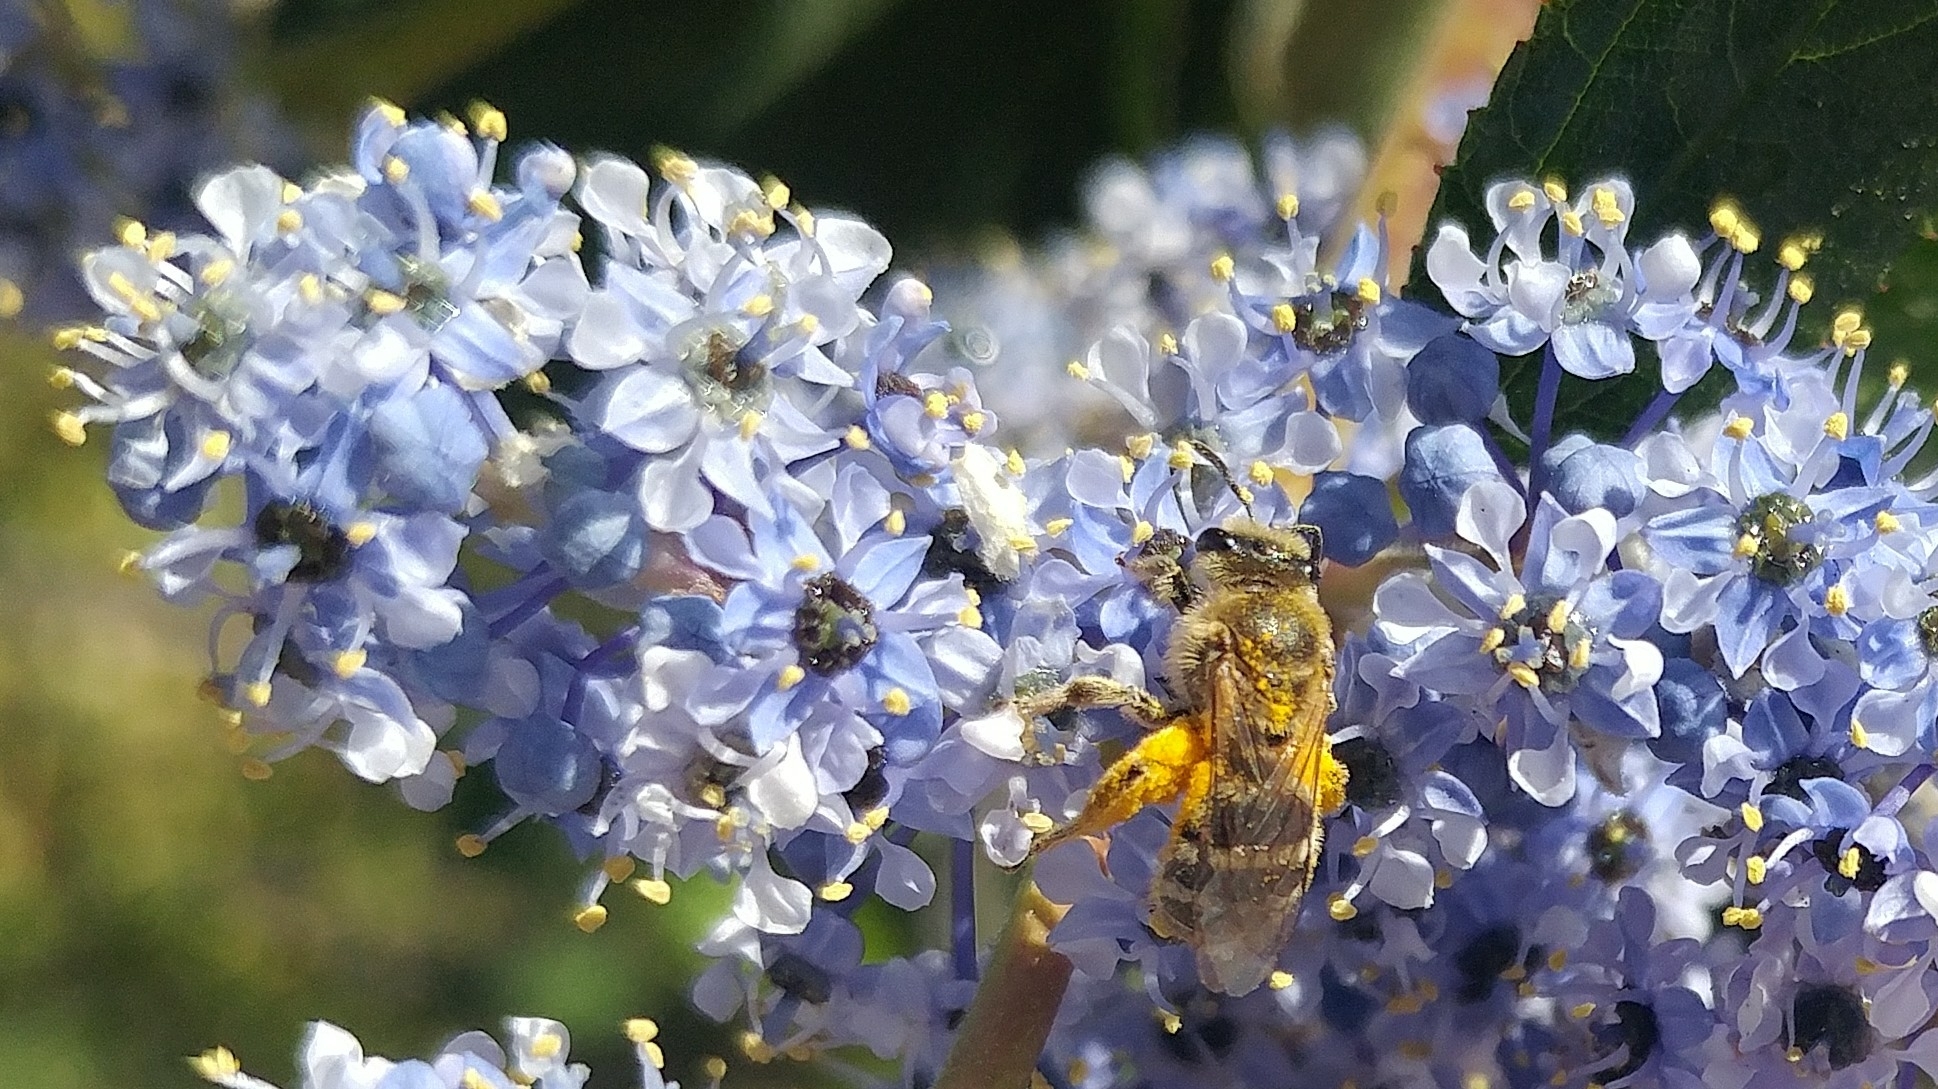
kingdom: Animalia
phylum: Arthropoda
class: Insecta
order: Hymenoptera
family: Halictidae
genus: Lasioglossum
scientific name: Lasioglossum sisymbrii
